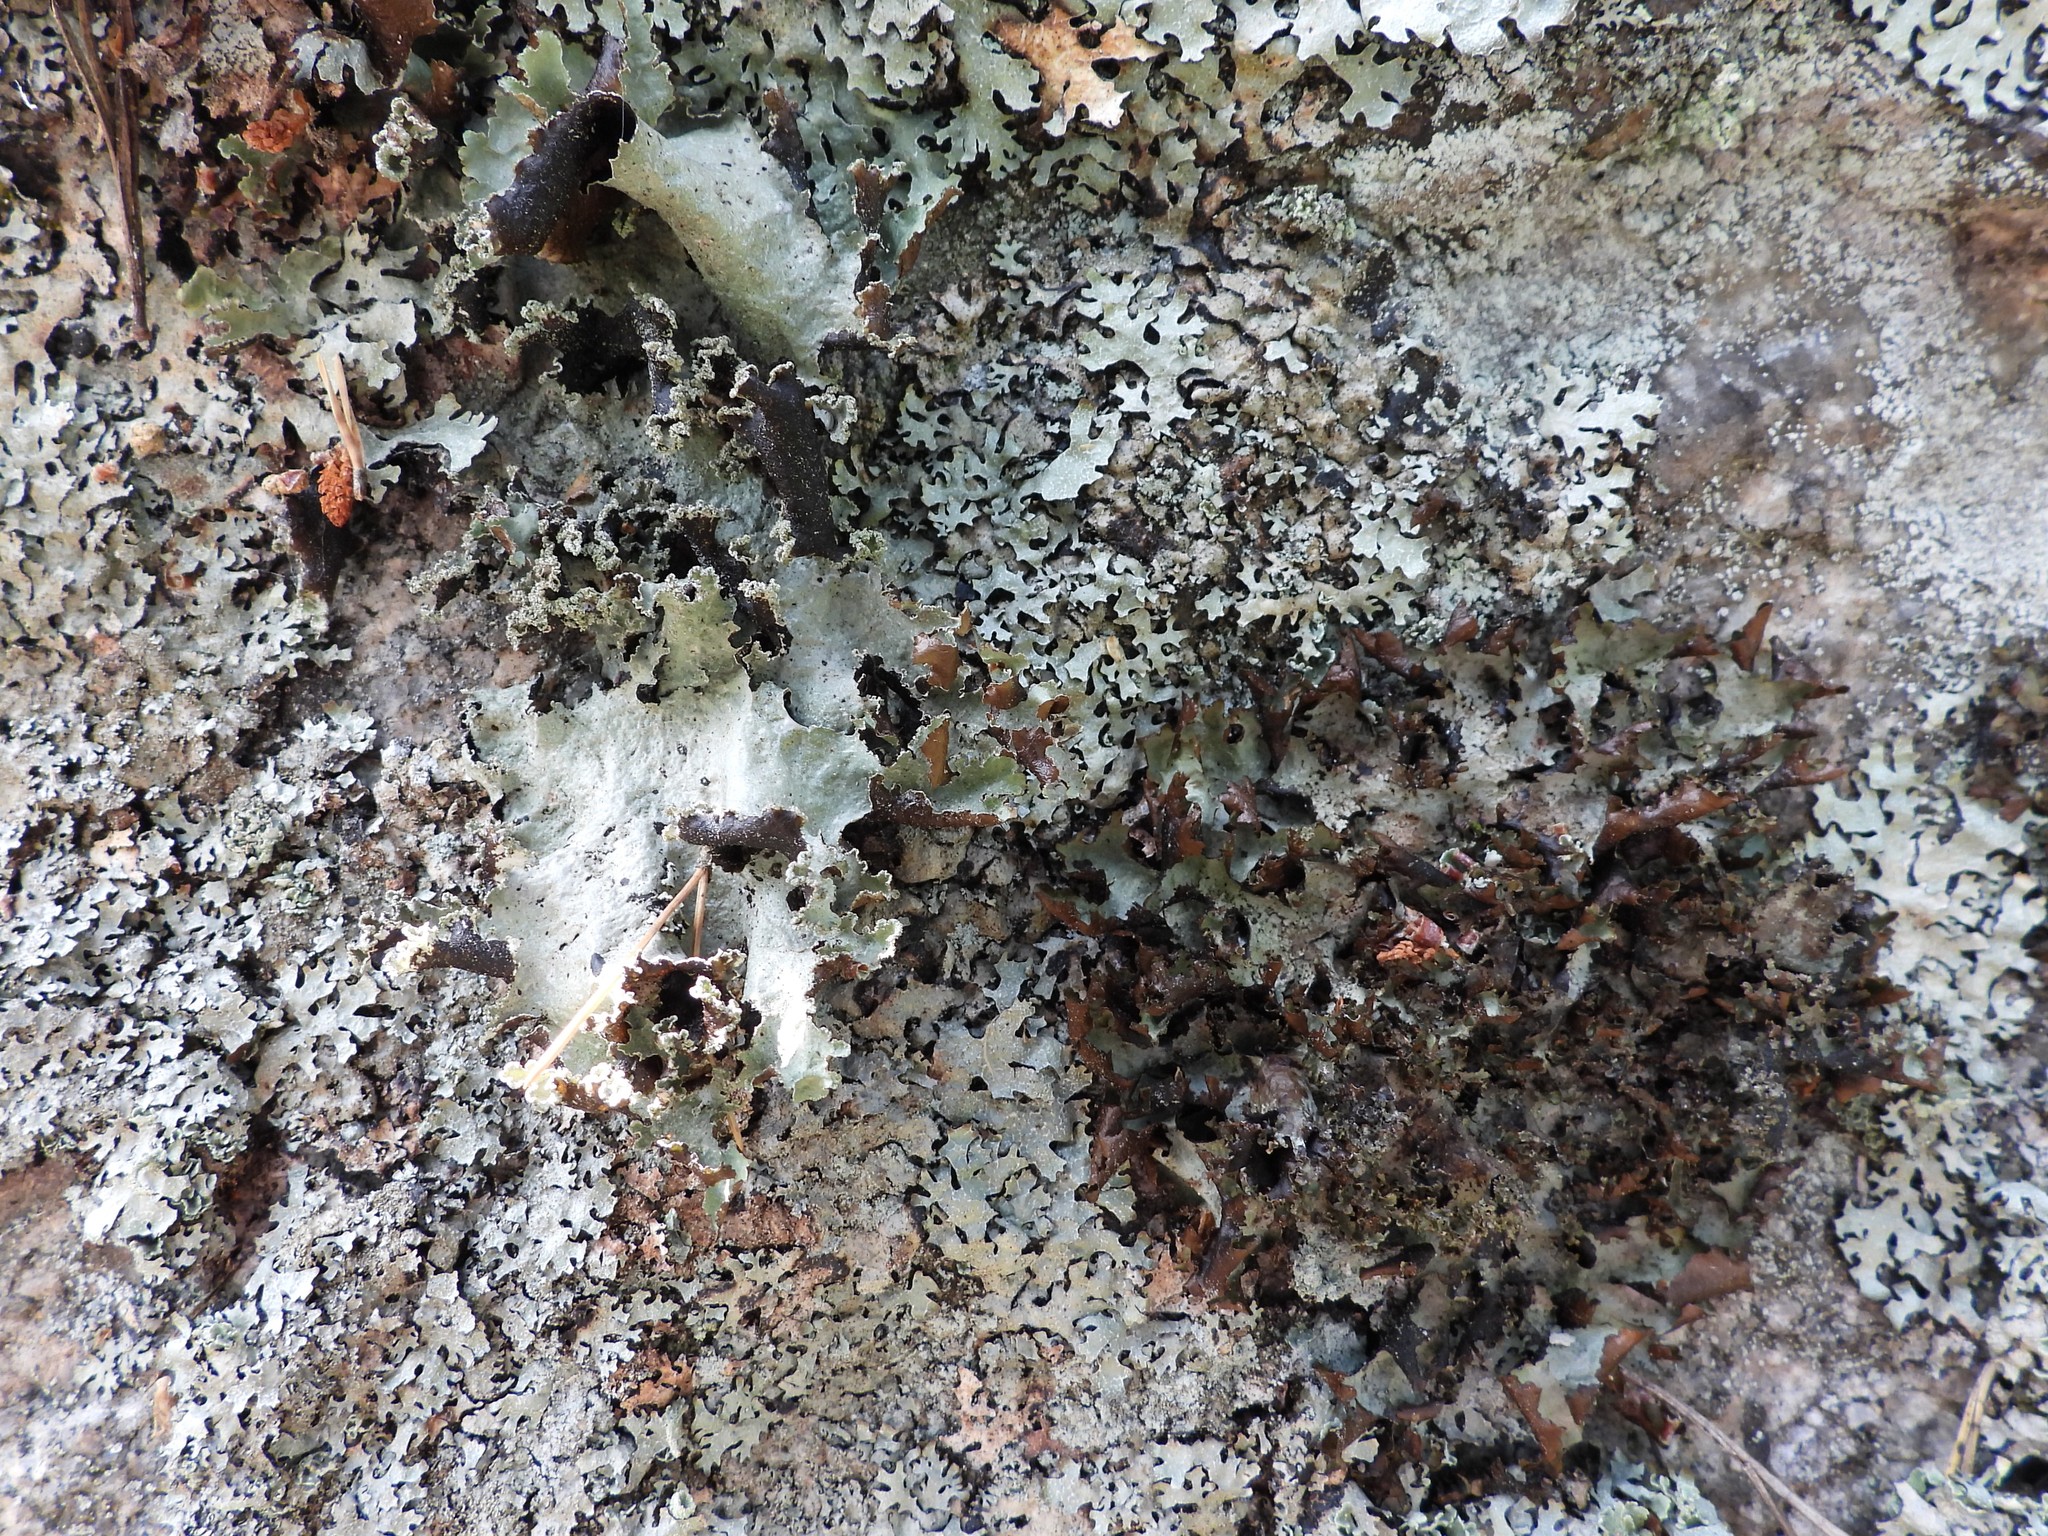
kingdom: Fungi
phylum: Ascomycota
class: Lecanoromycetes
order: Lecanorales
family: Parmeliaceae
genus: Platismatia
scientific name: Platismatia glauca
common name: Varied rag lichen
